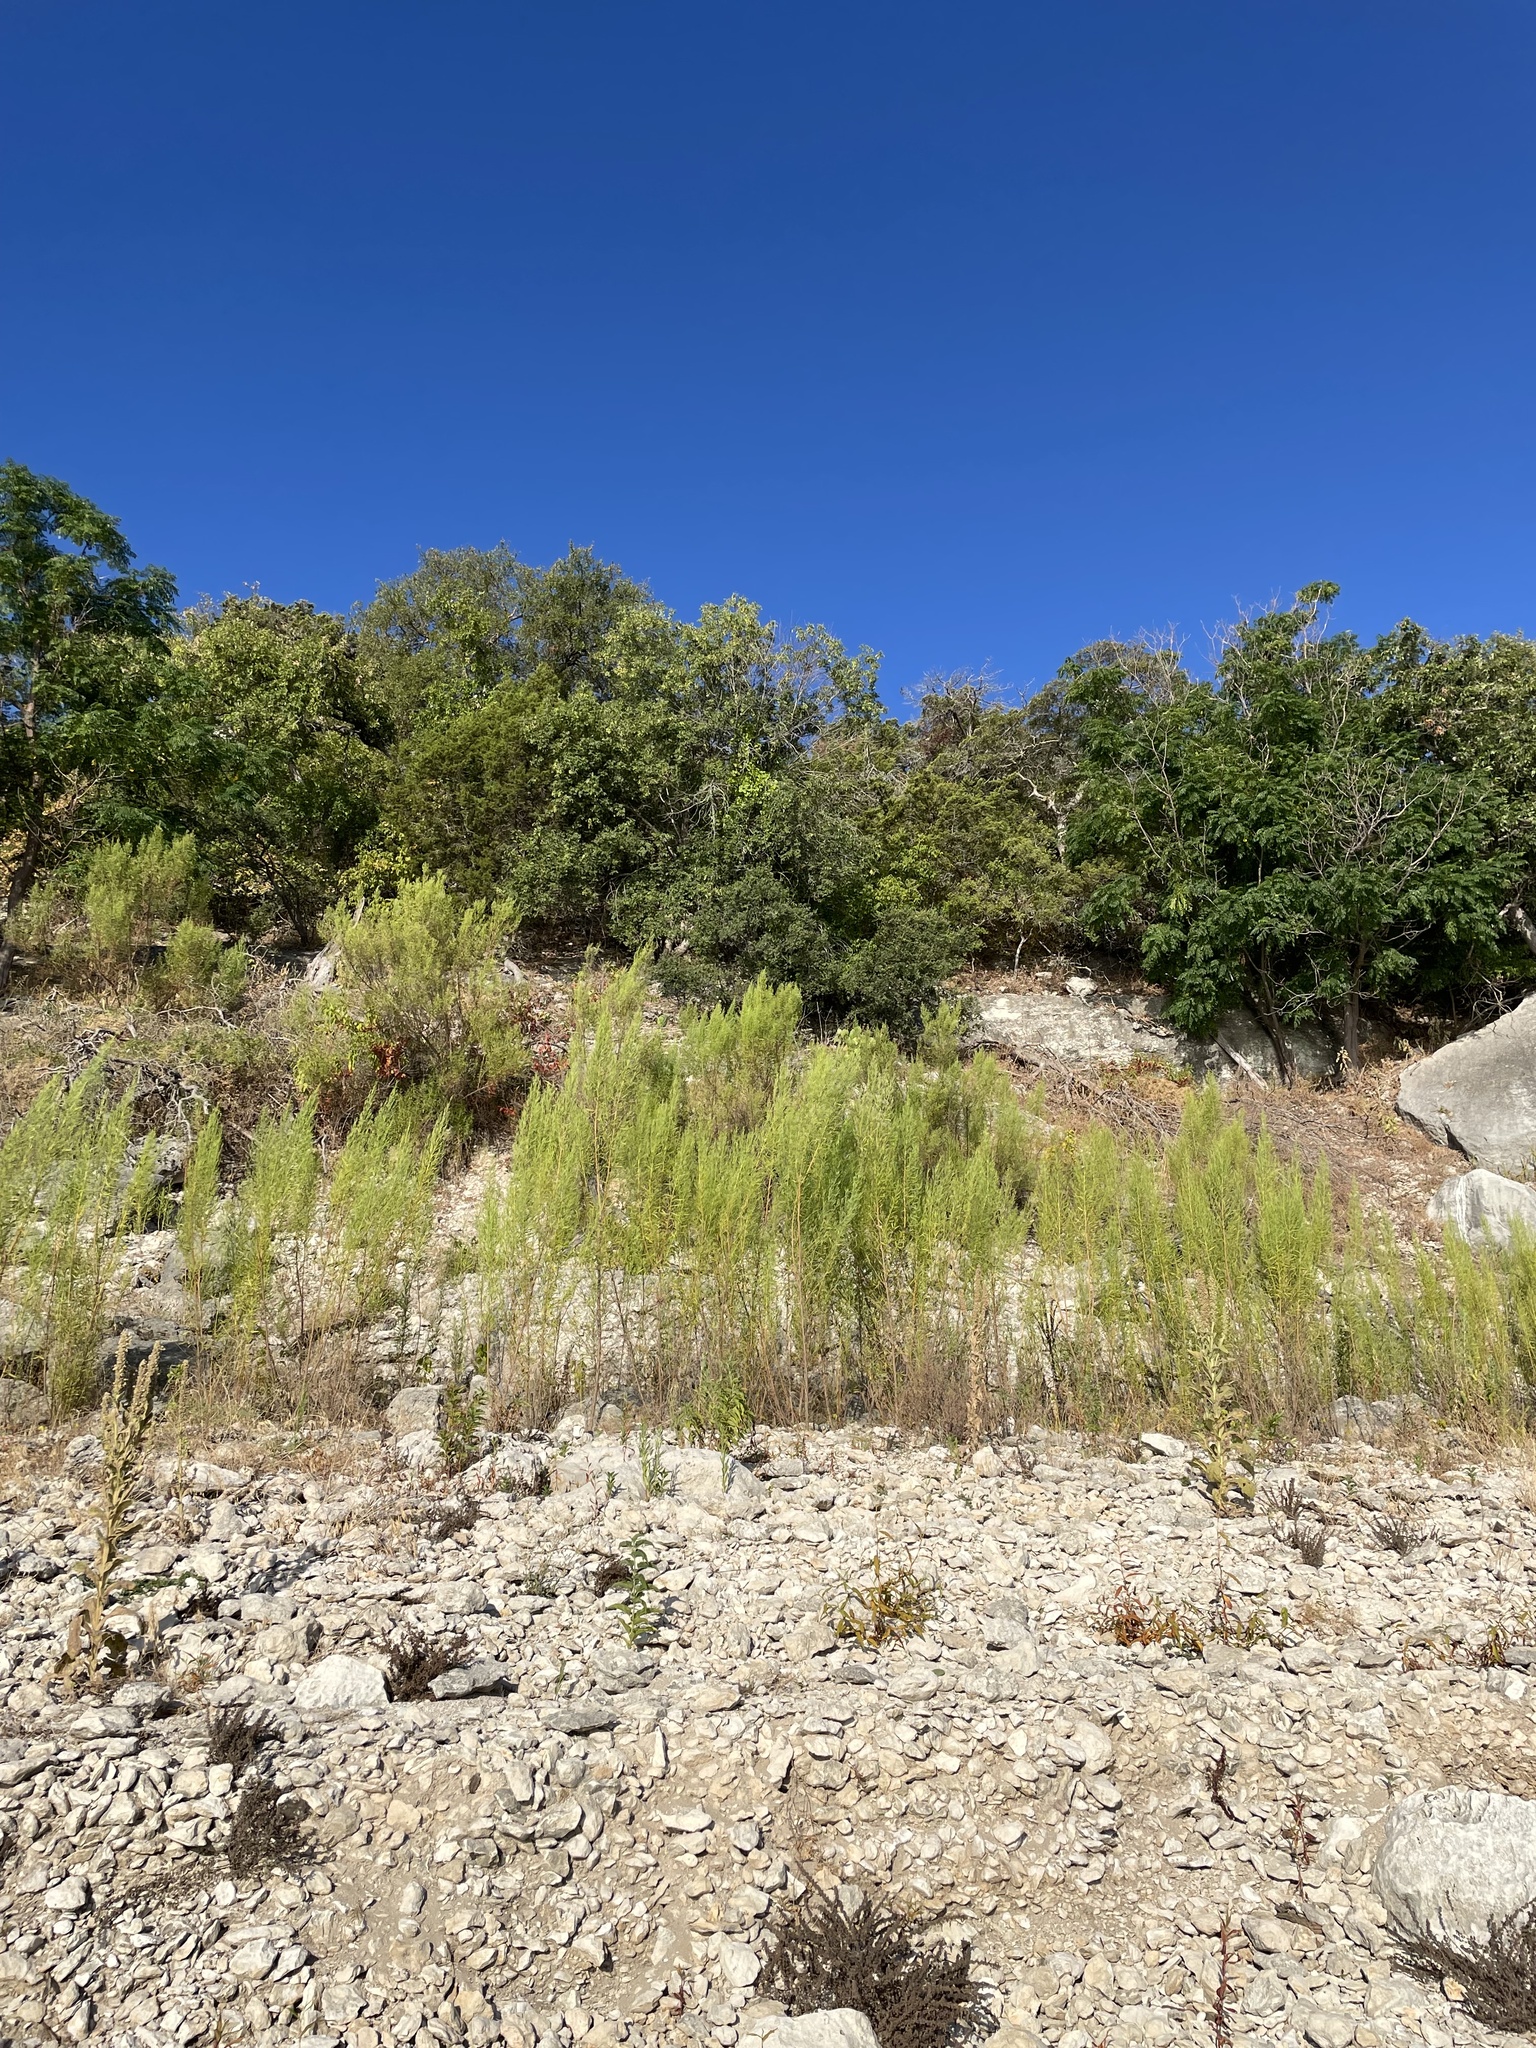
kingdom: Plantae
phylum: Tracheophyta
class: Magnoliopsida
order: Lamiales
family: Oleaceae
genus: Fraxinus
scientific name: Fraxinus albicans
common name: Texas ash
